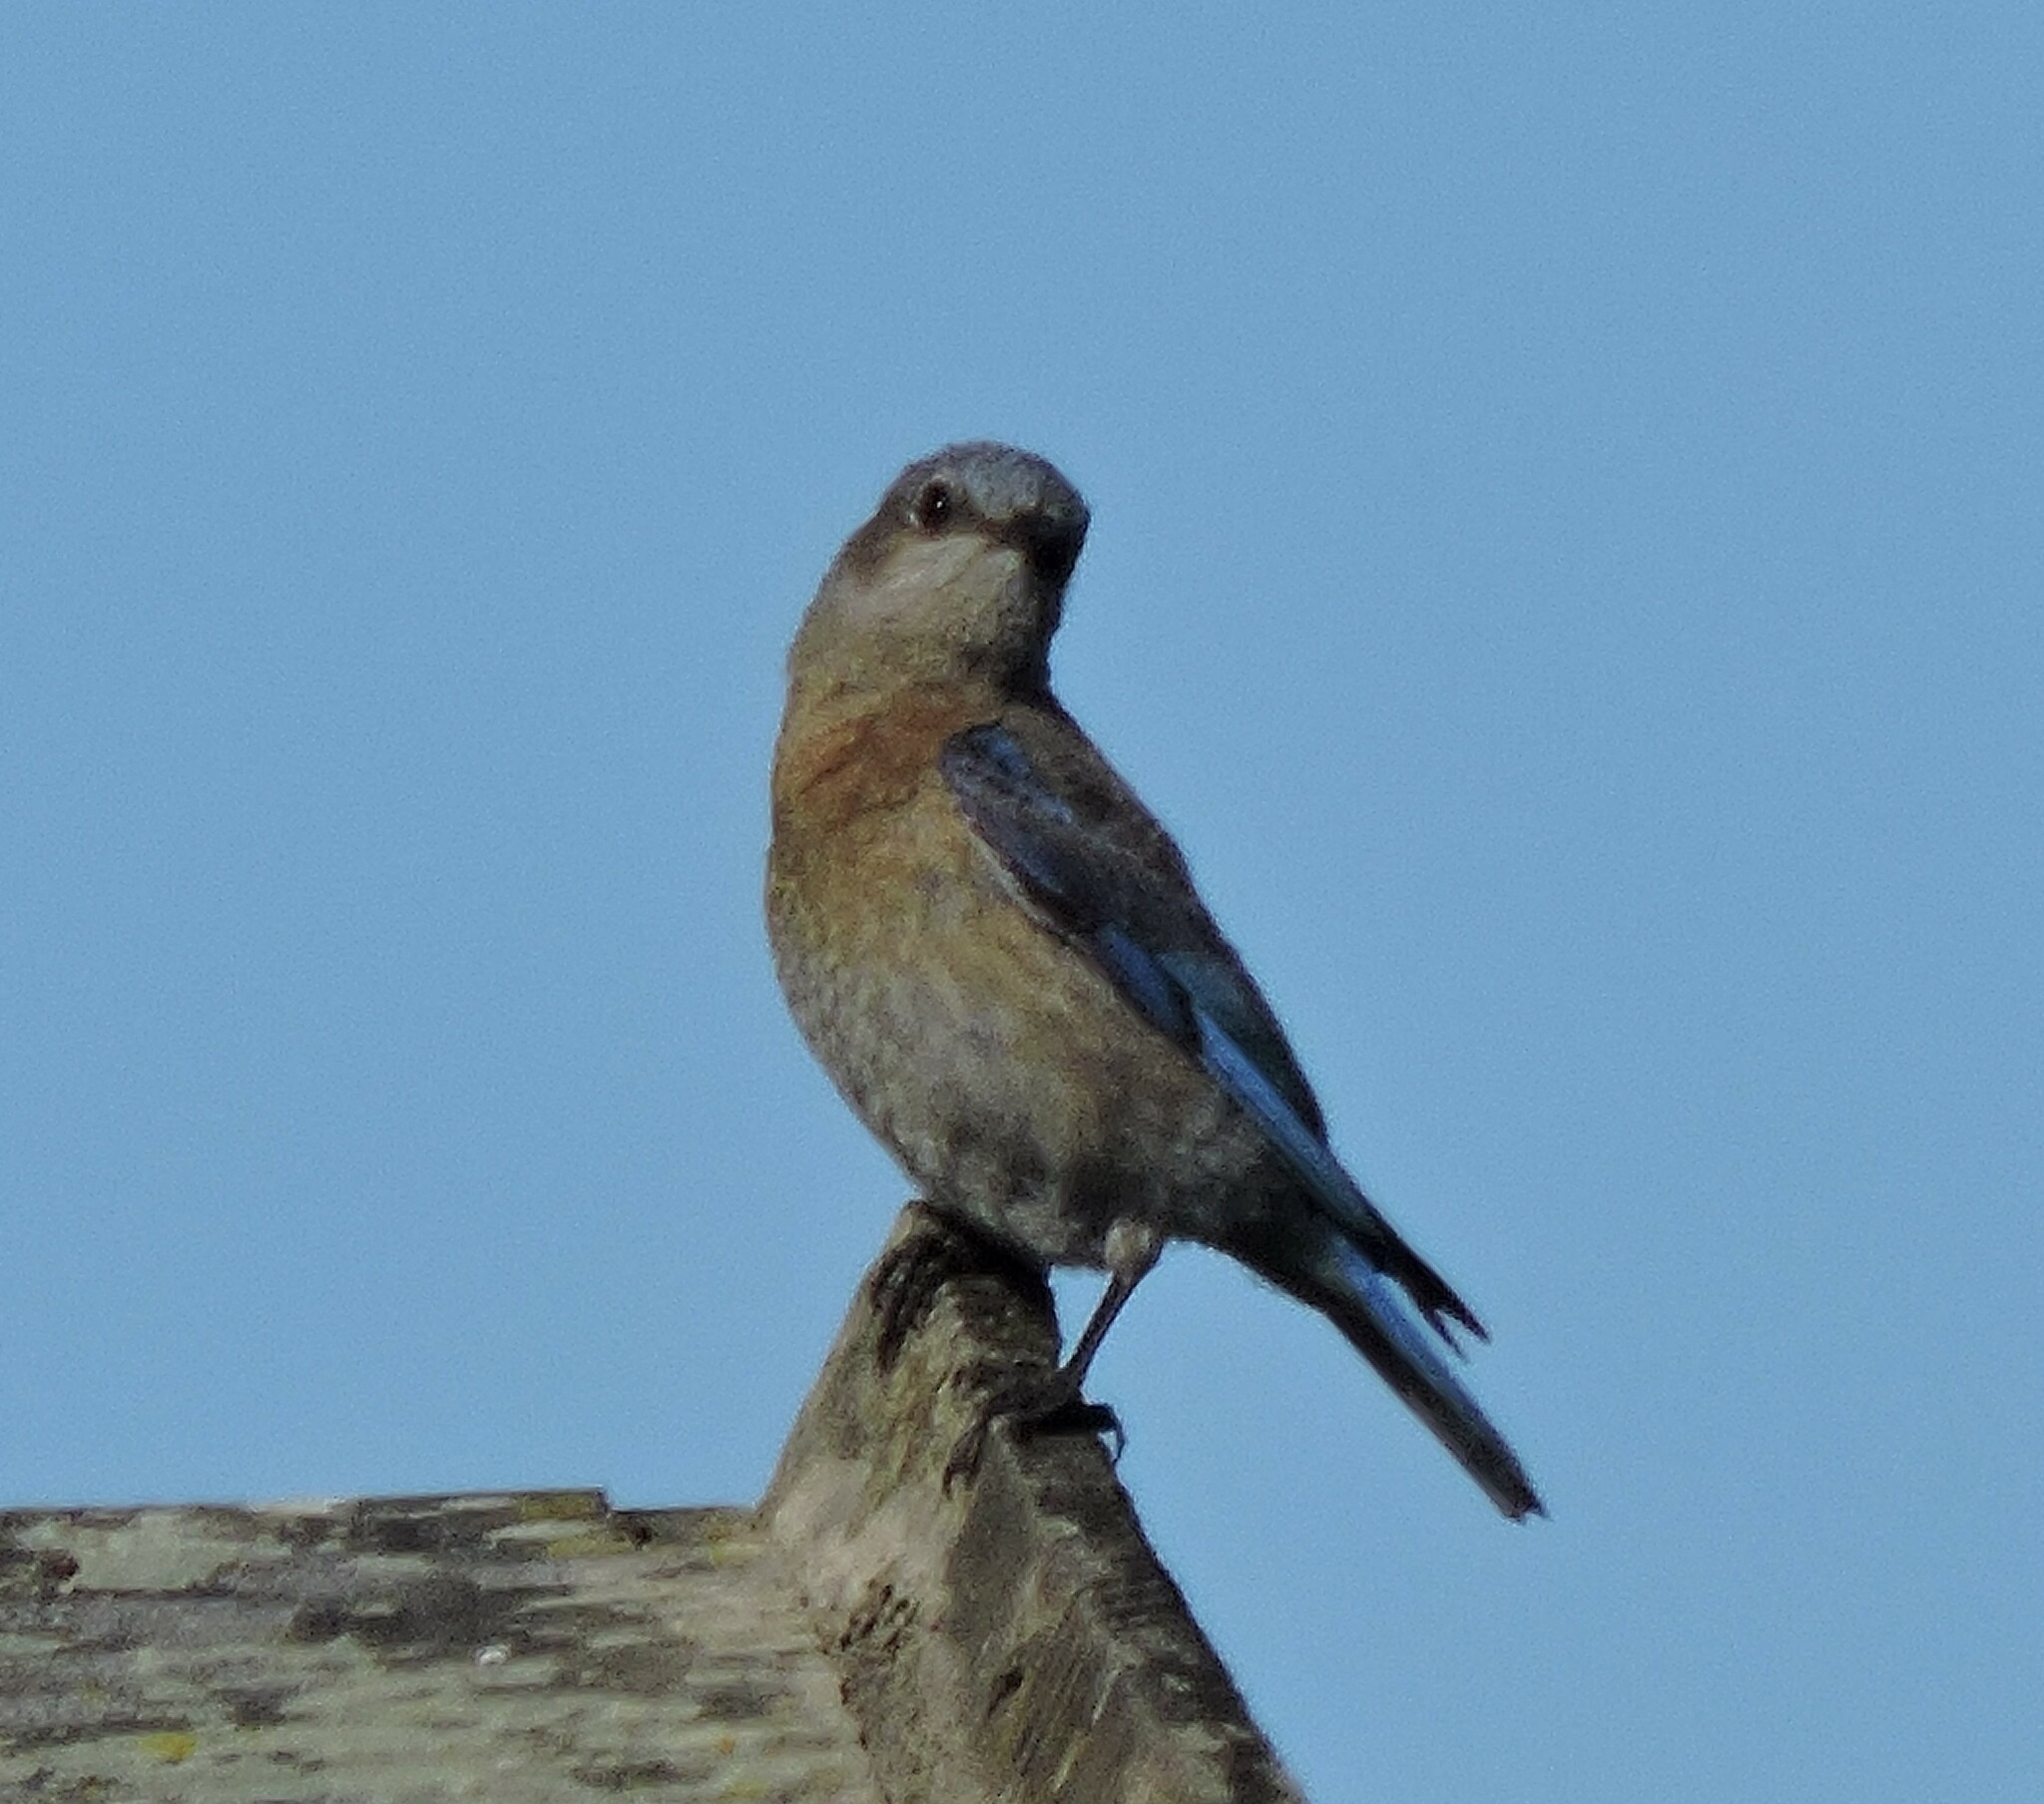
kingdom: Animalia
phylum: Chordata
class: Aves
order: Passeriformes
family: Turdidae
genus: Sialia
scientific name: Sialia mexicana
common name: Western bluebird
